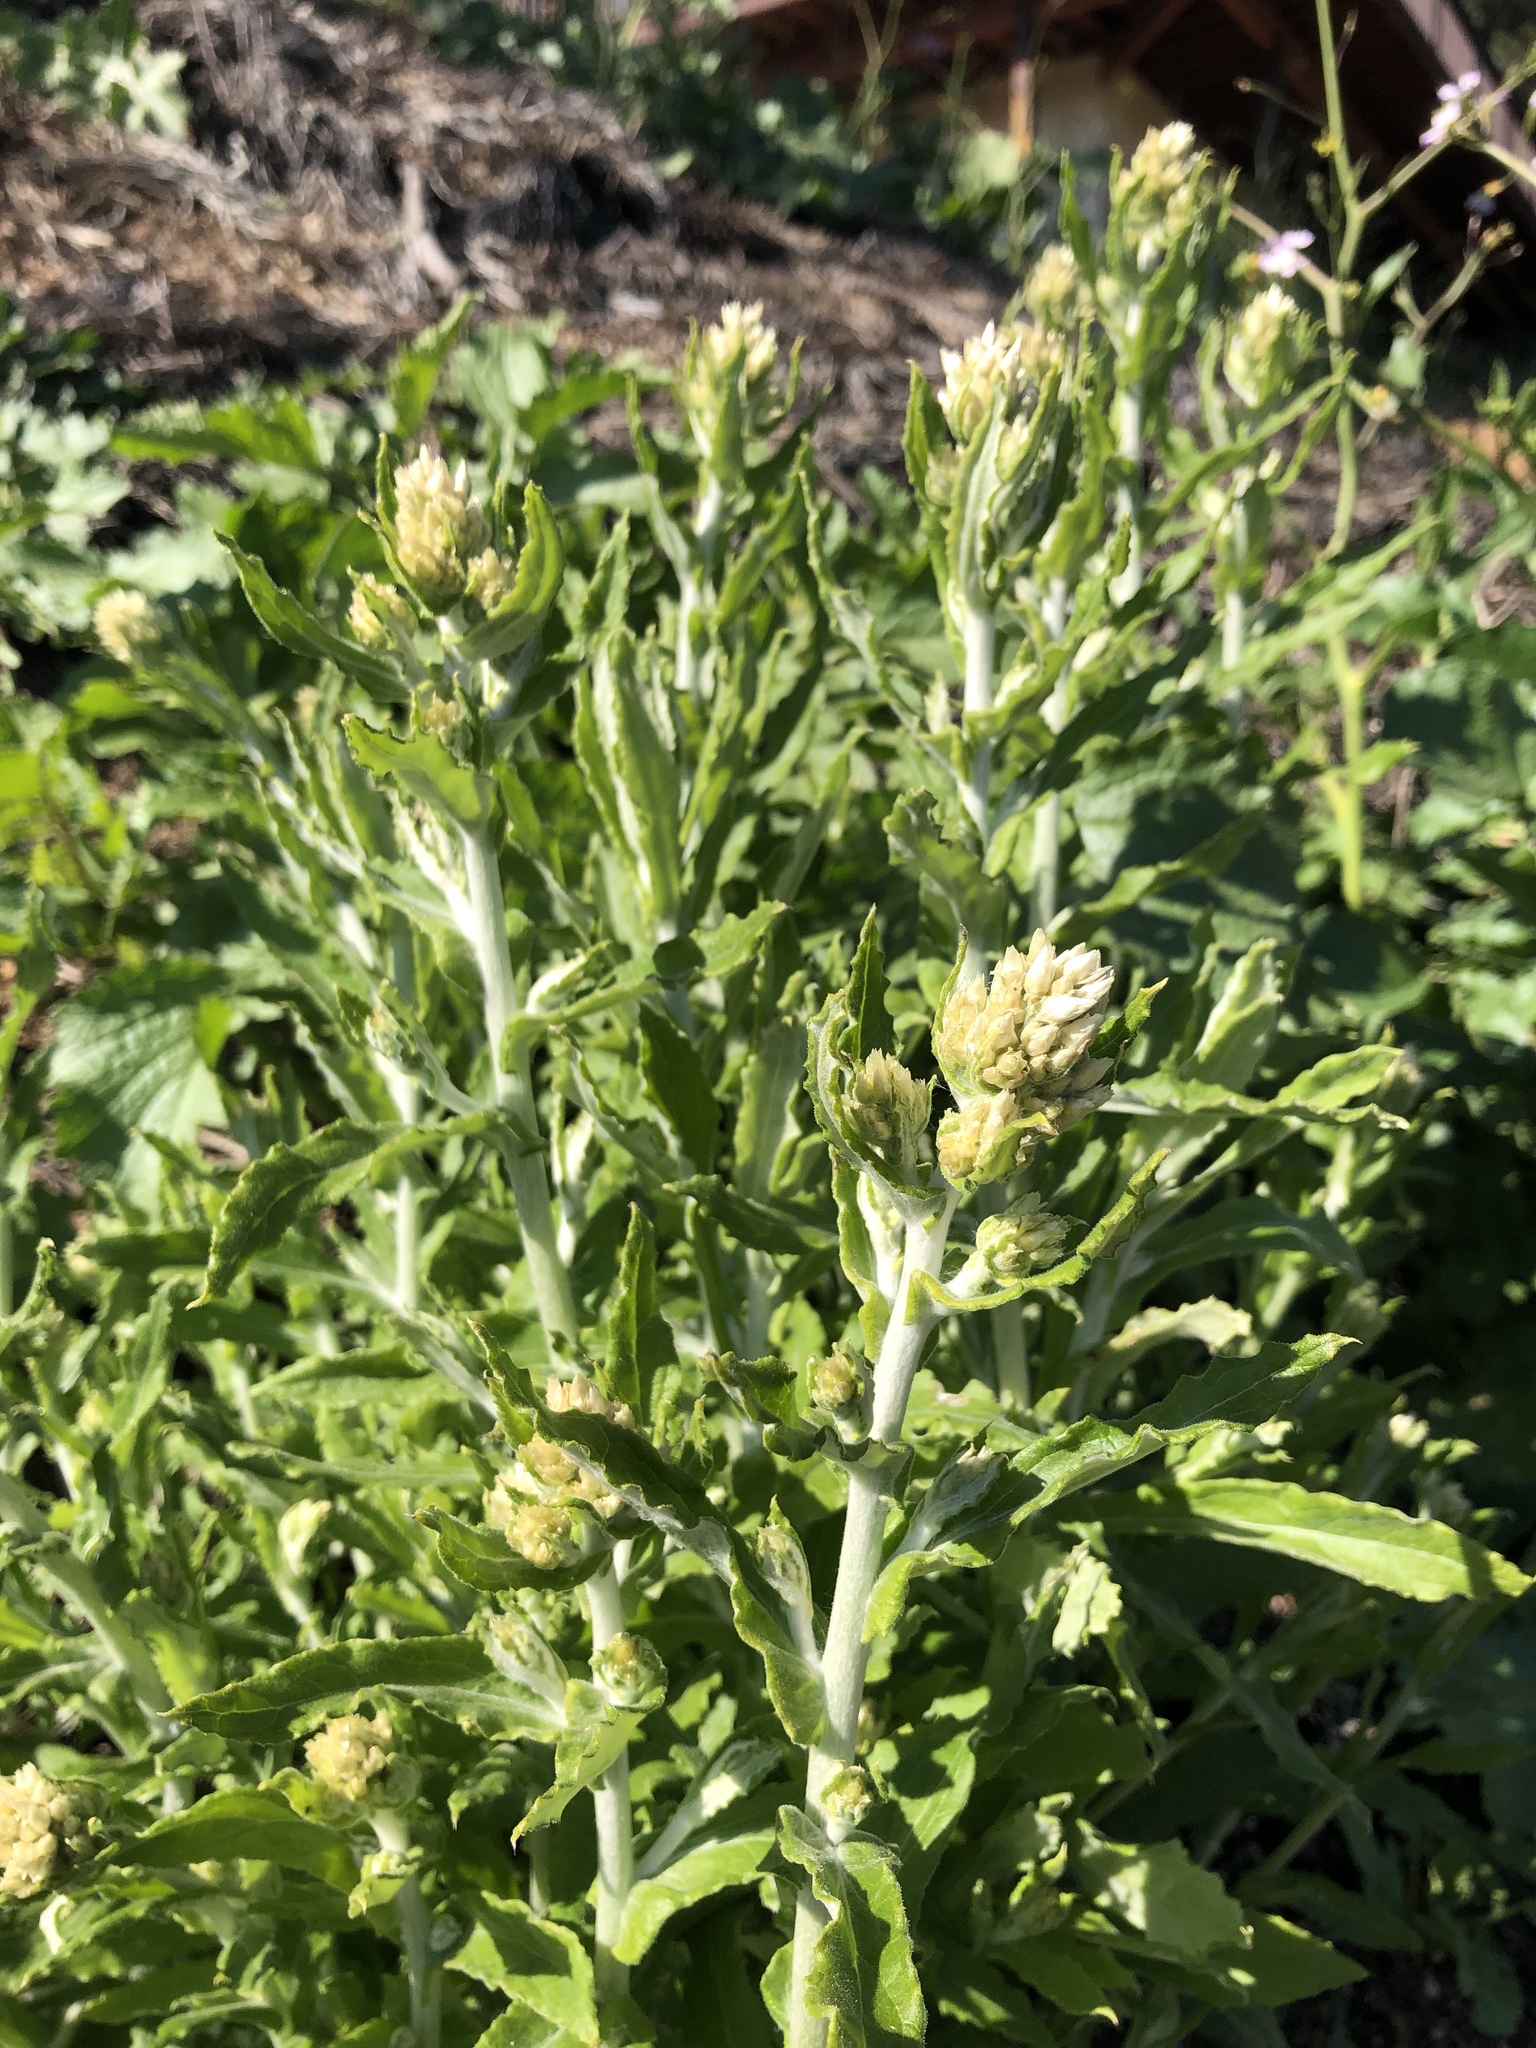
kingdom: Plantae
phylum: Tracheophyta
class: Magnoliopsida
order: Asterales
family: Asteraceae
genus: Pseudognaphalium
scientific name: Pseudognaphalium biolettii
